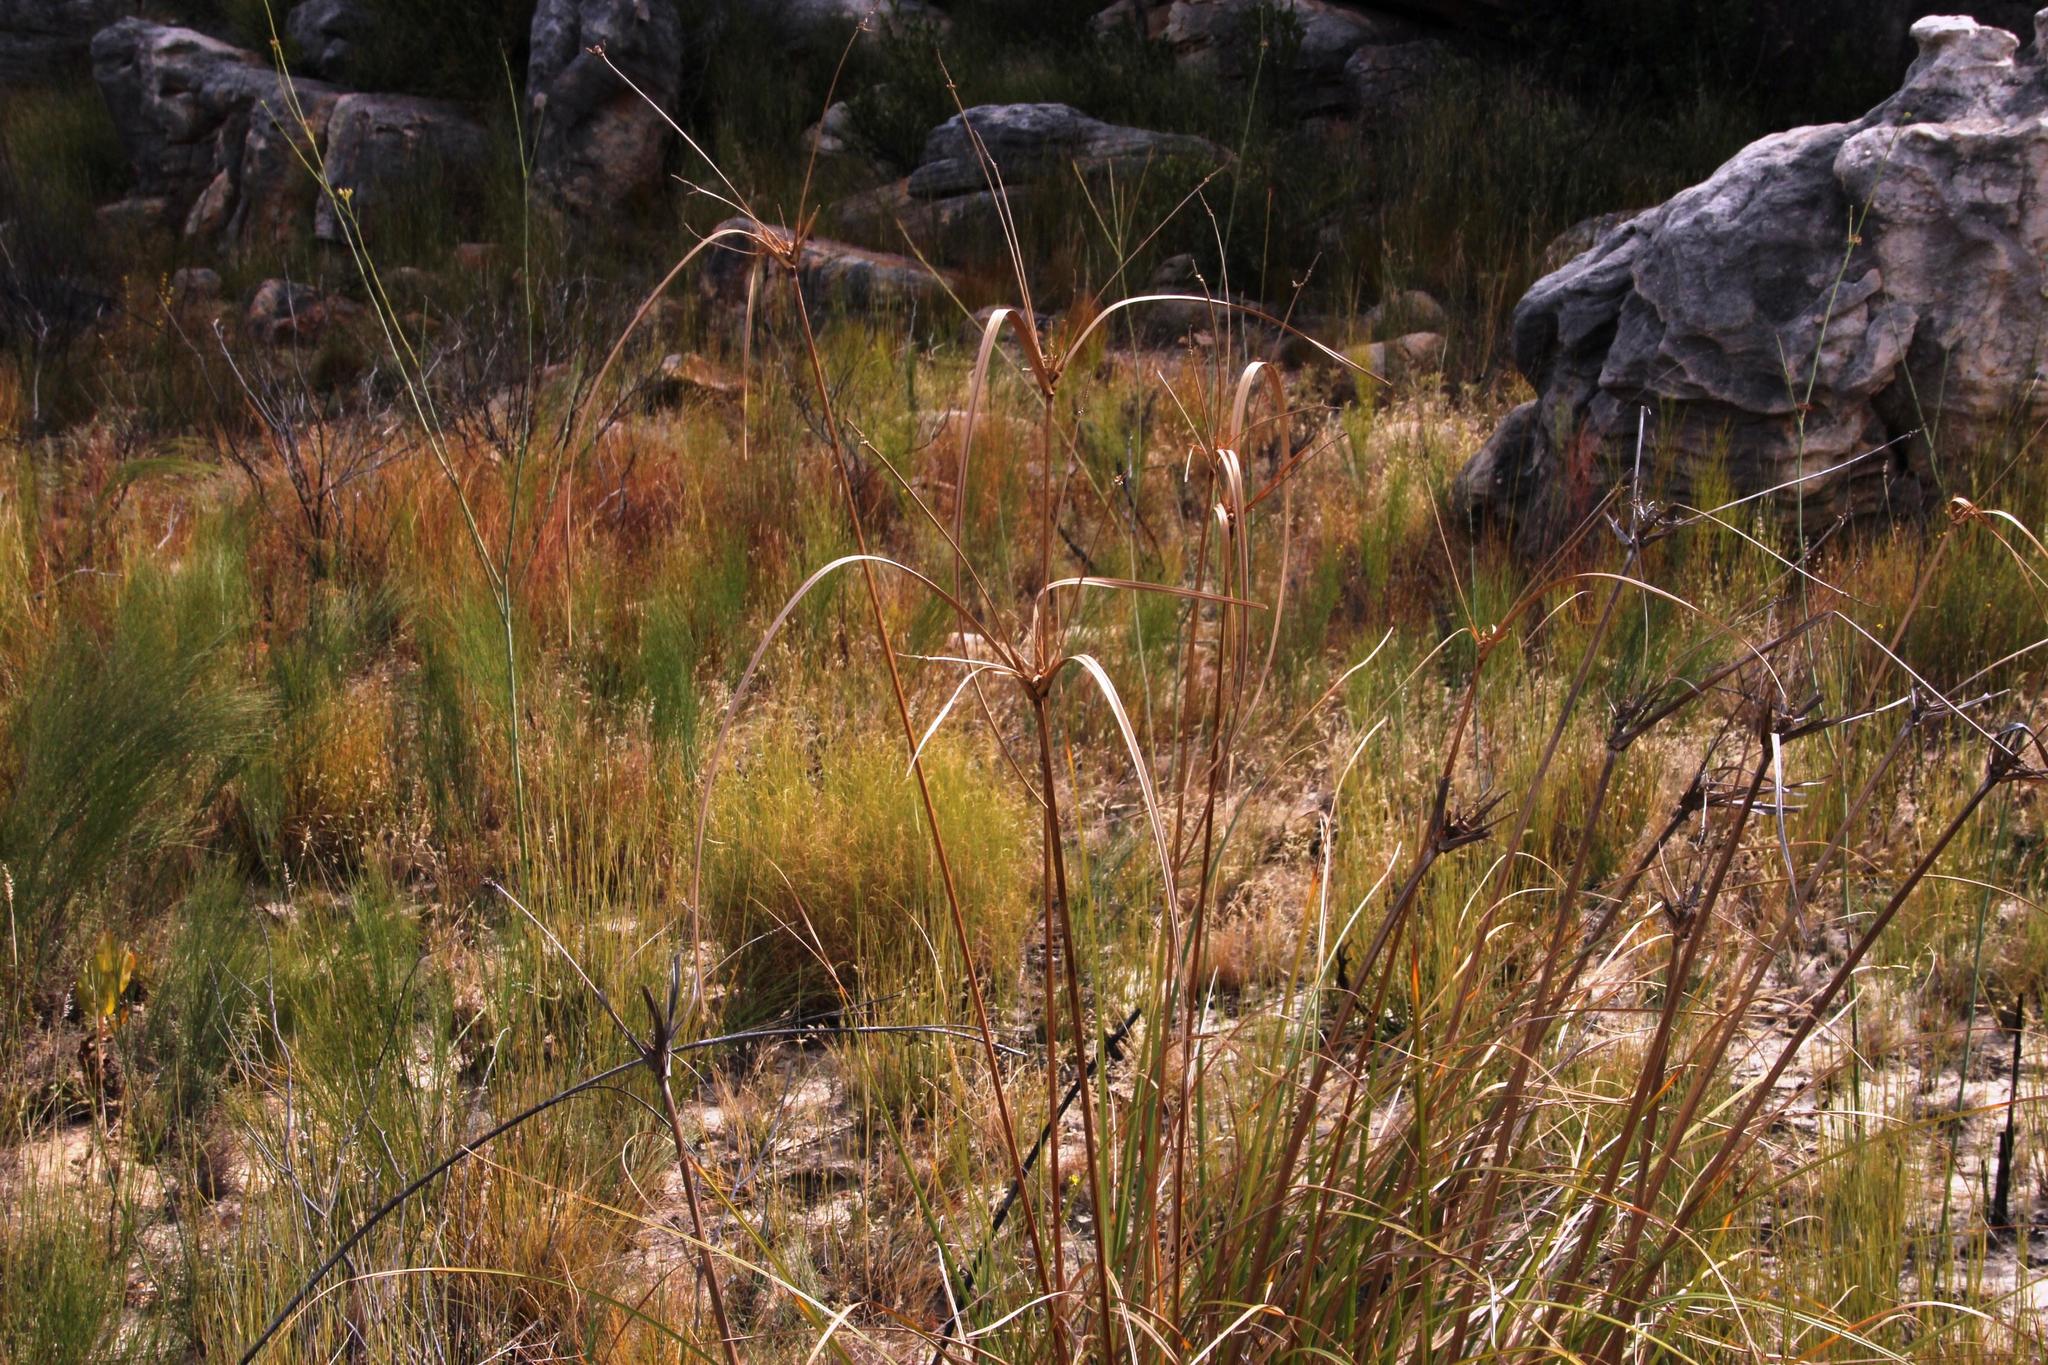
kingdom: Plantae
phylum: Tracheophyta
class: Liliopsida
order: Poales
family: Cyperaceae
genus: Cyperus
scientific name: Cyperus thunbergii
